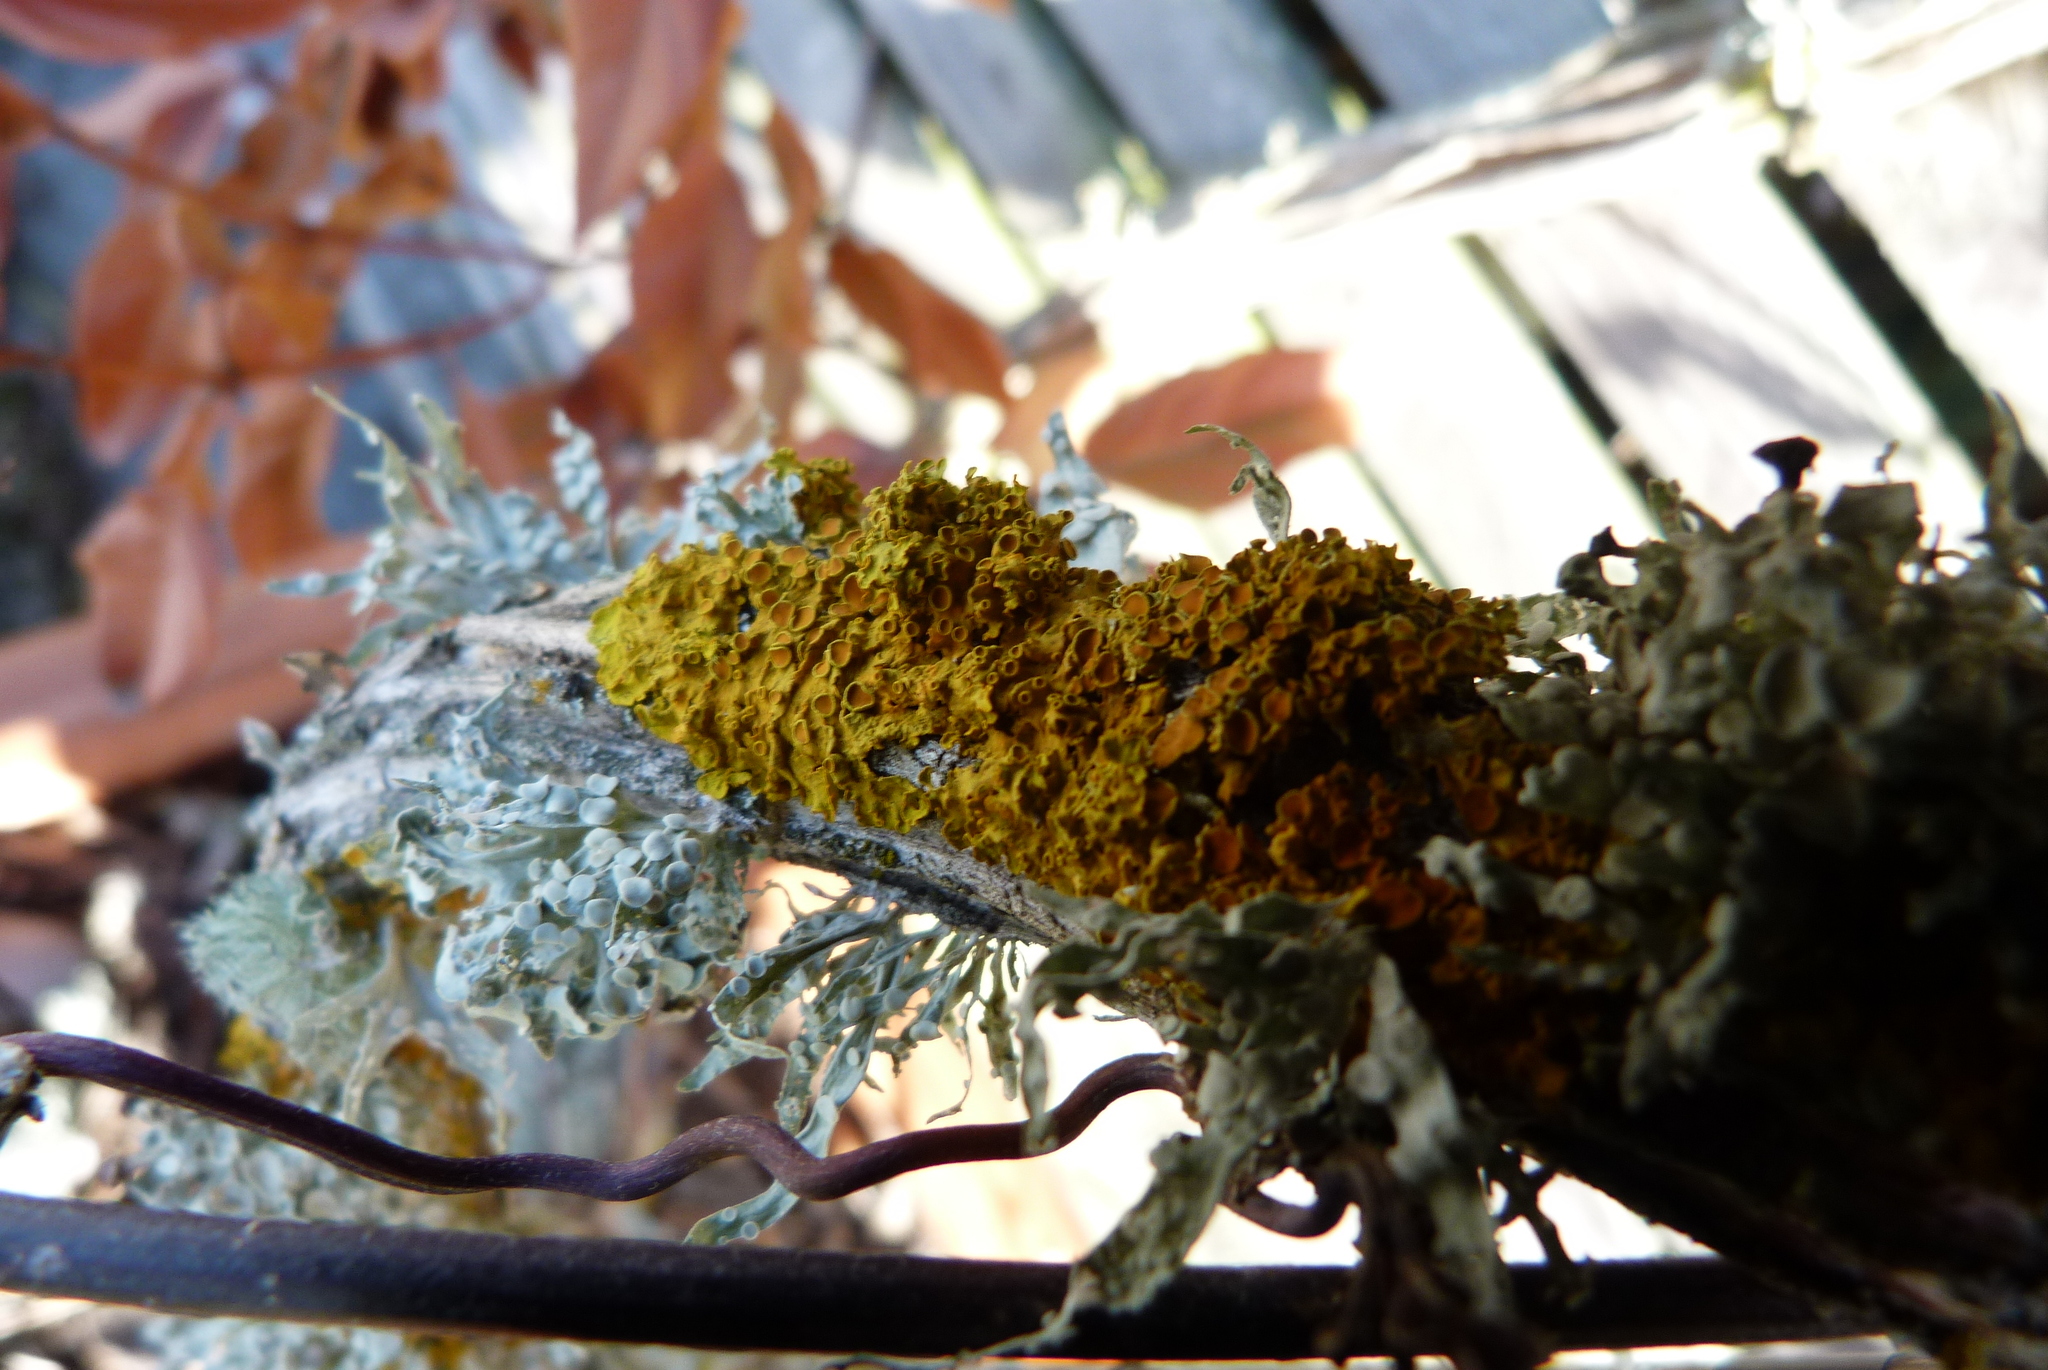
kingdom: Fungi
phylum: Ascomycota
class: Lecanoromycetes
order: Teloschistales
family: Teloschistaceae
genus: Xanthoria
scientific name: Xanthoria parietina
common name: Common orange lichen
